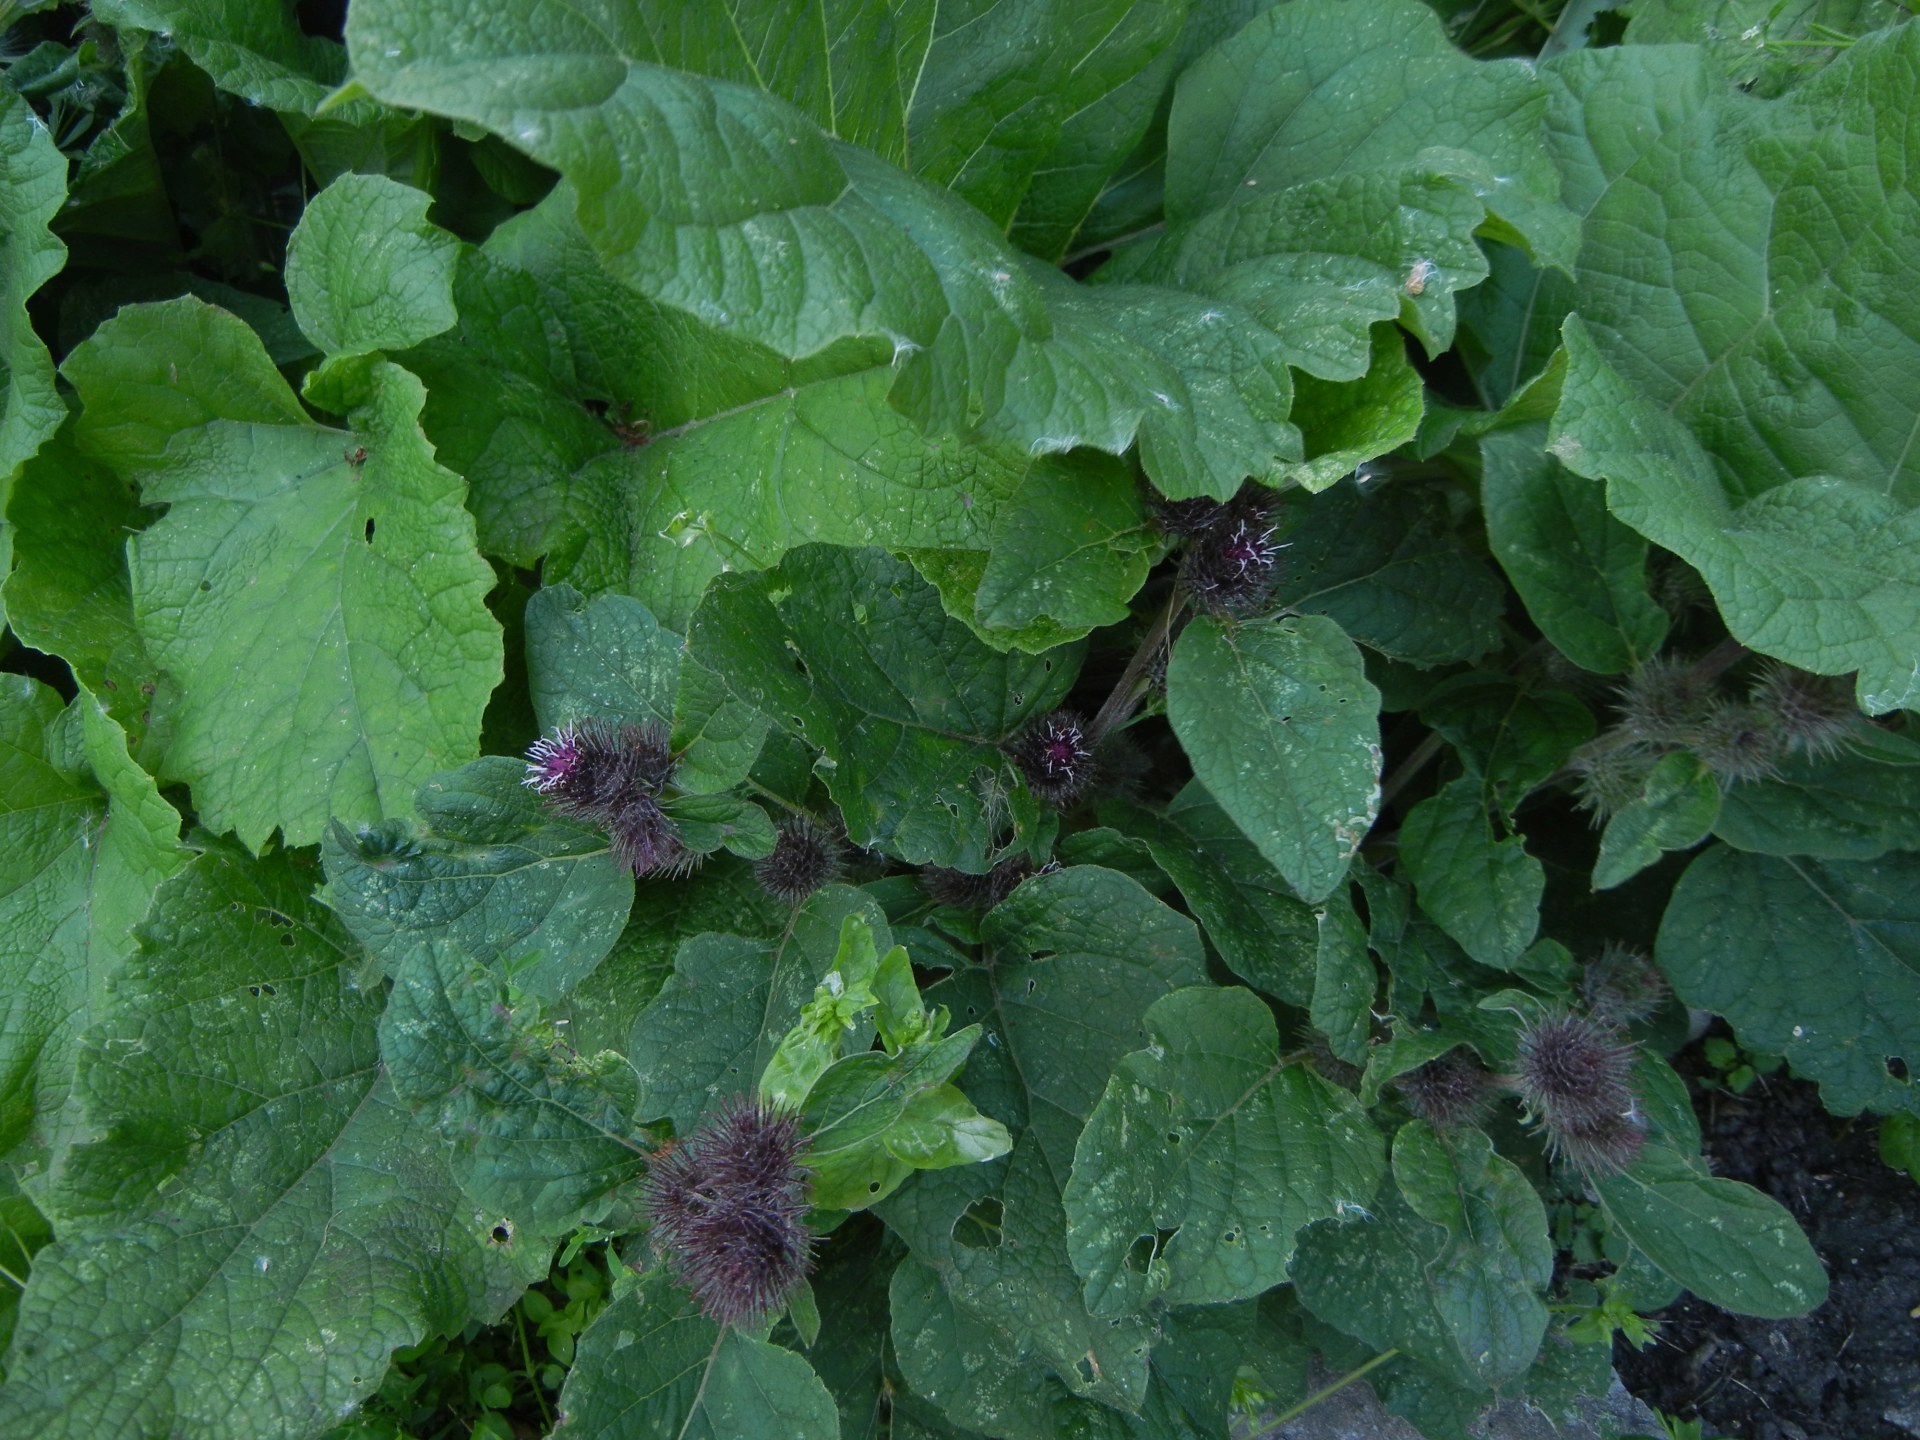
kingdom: Plantae
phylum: Tracheophyta
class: Magnoliopsida
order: Asterales
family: Asteraceae
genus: Arctium
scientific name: Arctium minus
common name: Lesser burdock
